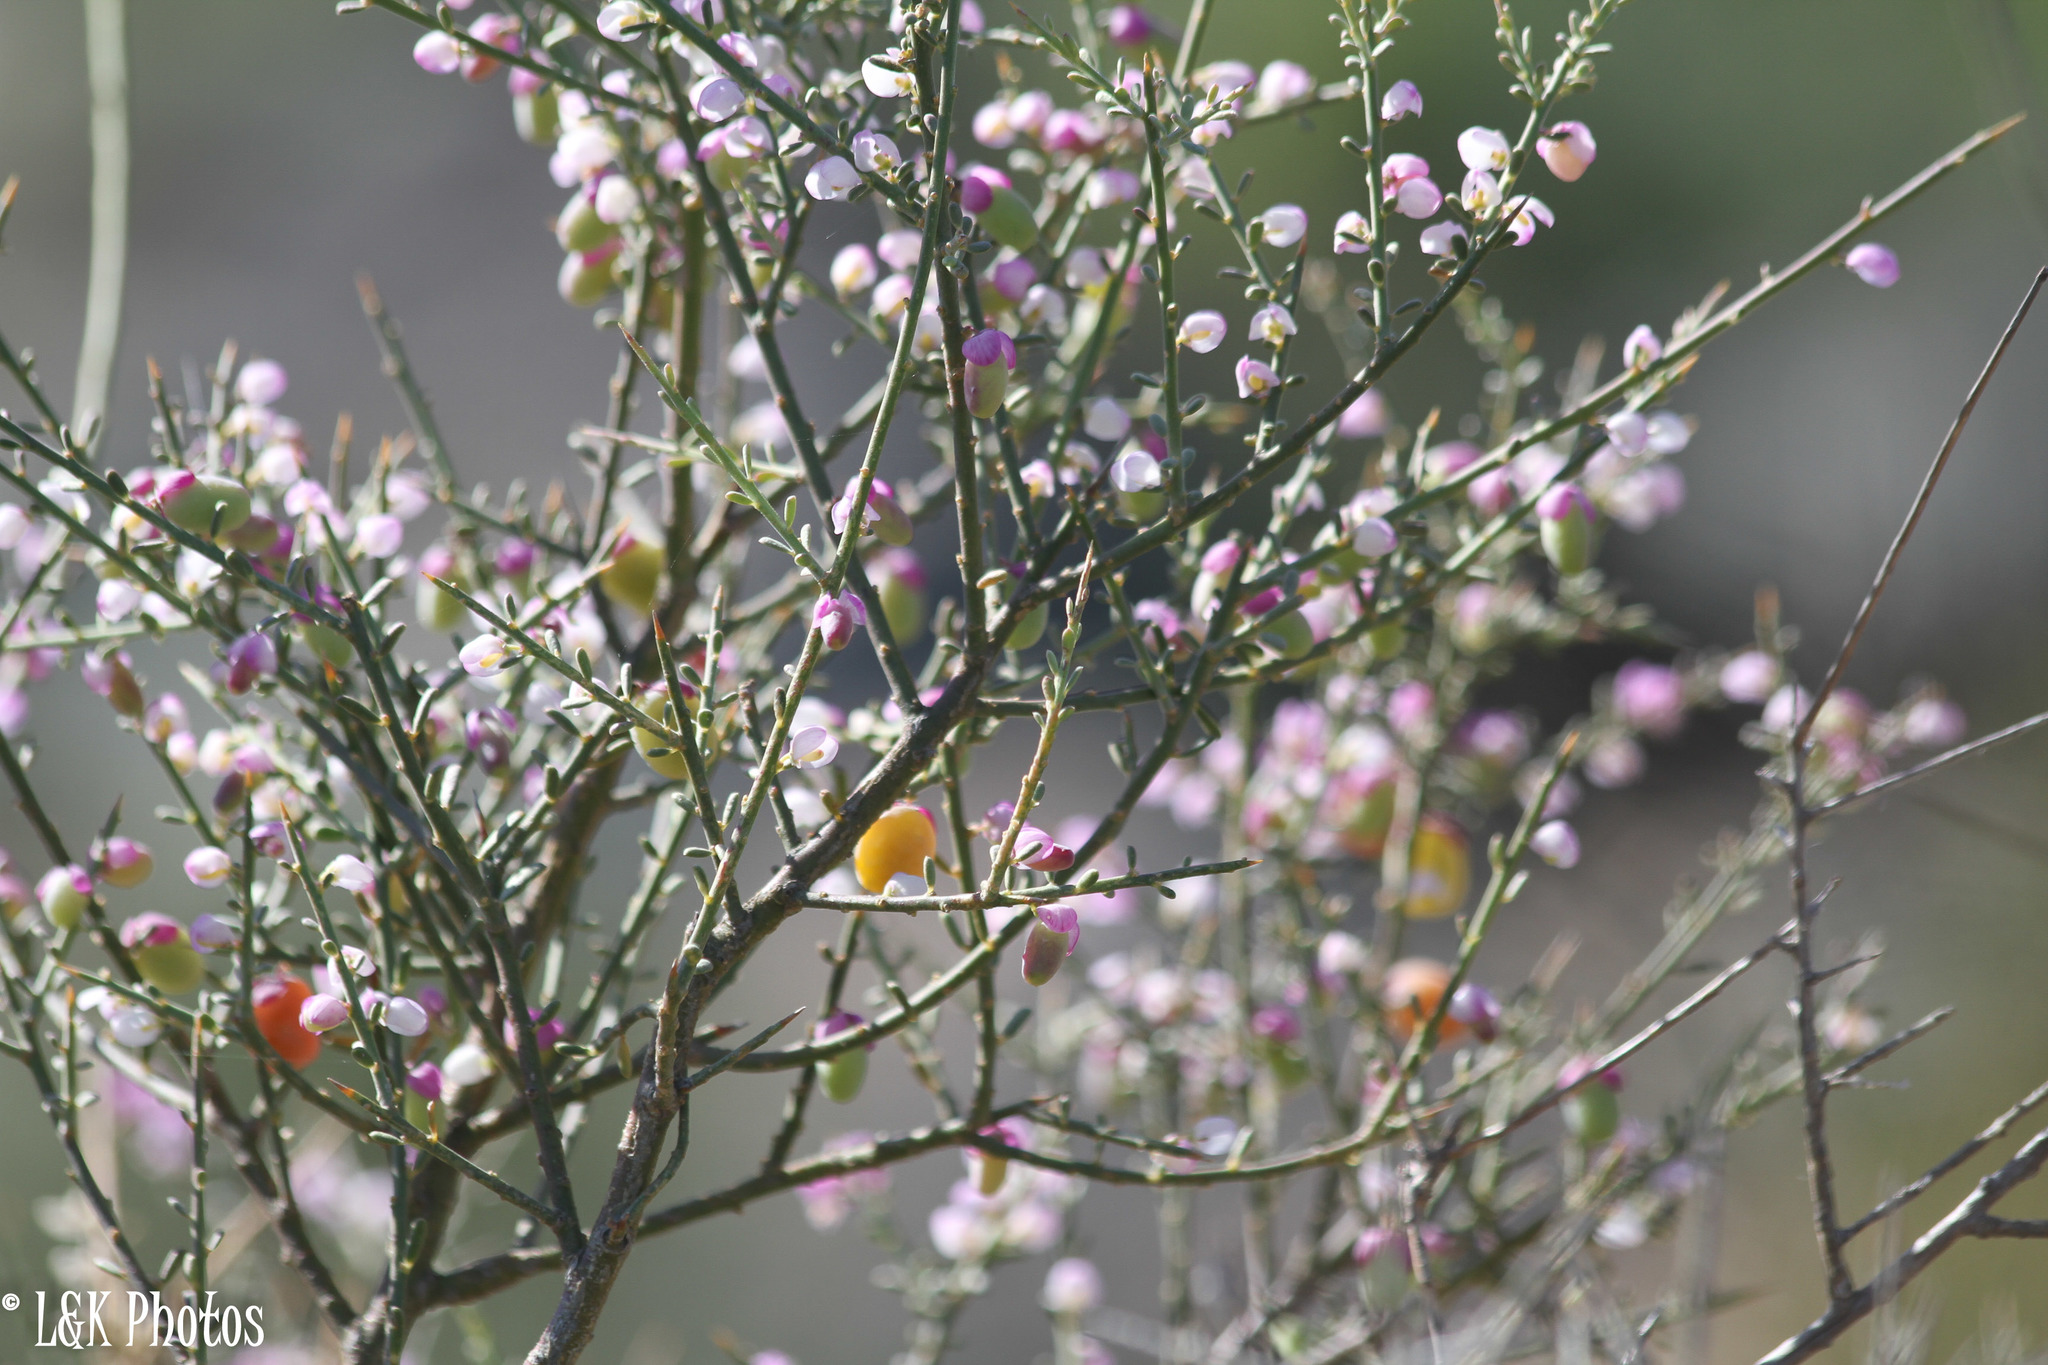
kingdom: Plantae
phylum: Tracheophyta
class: Magnoliopsida
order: Fabales
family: Polygalaceae
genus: Muraltia
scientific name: Muraltia spinosa
